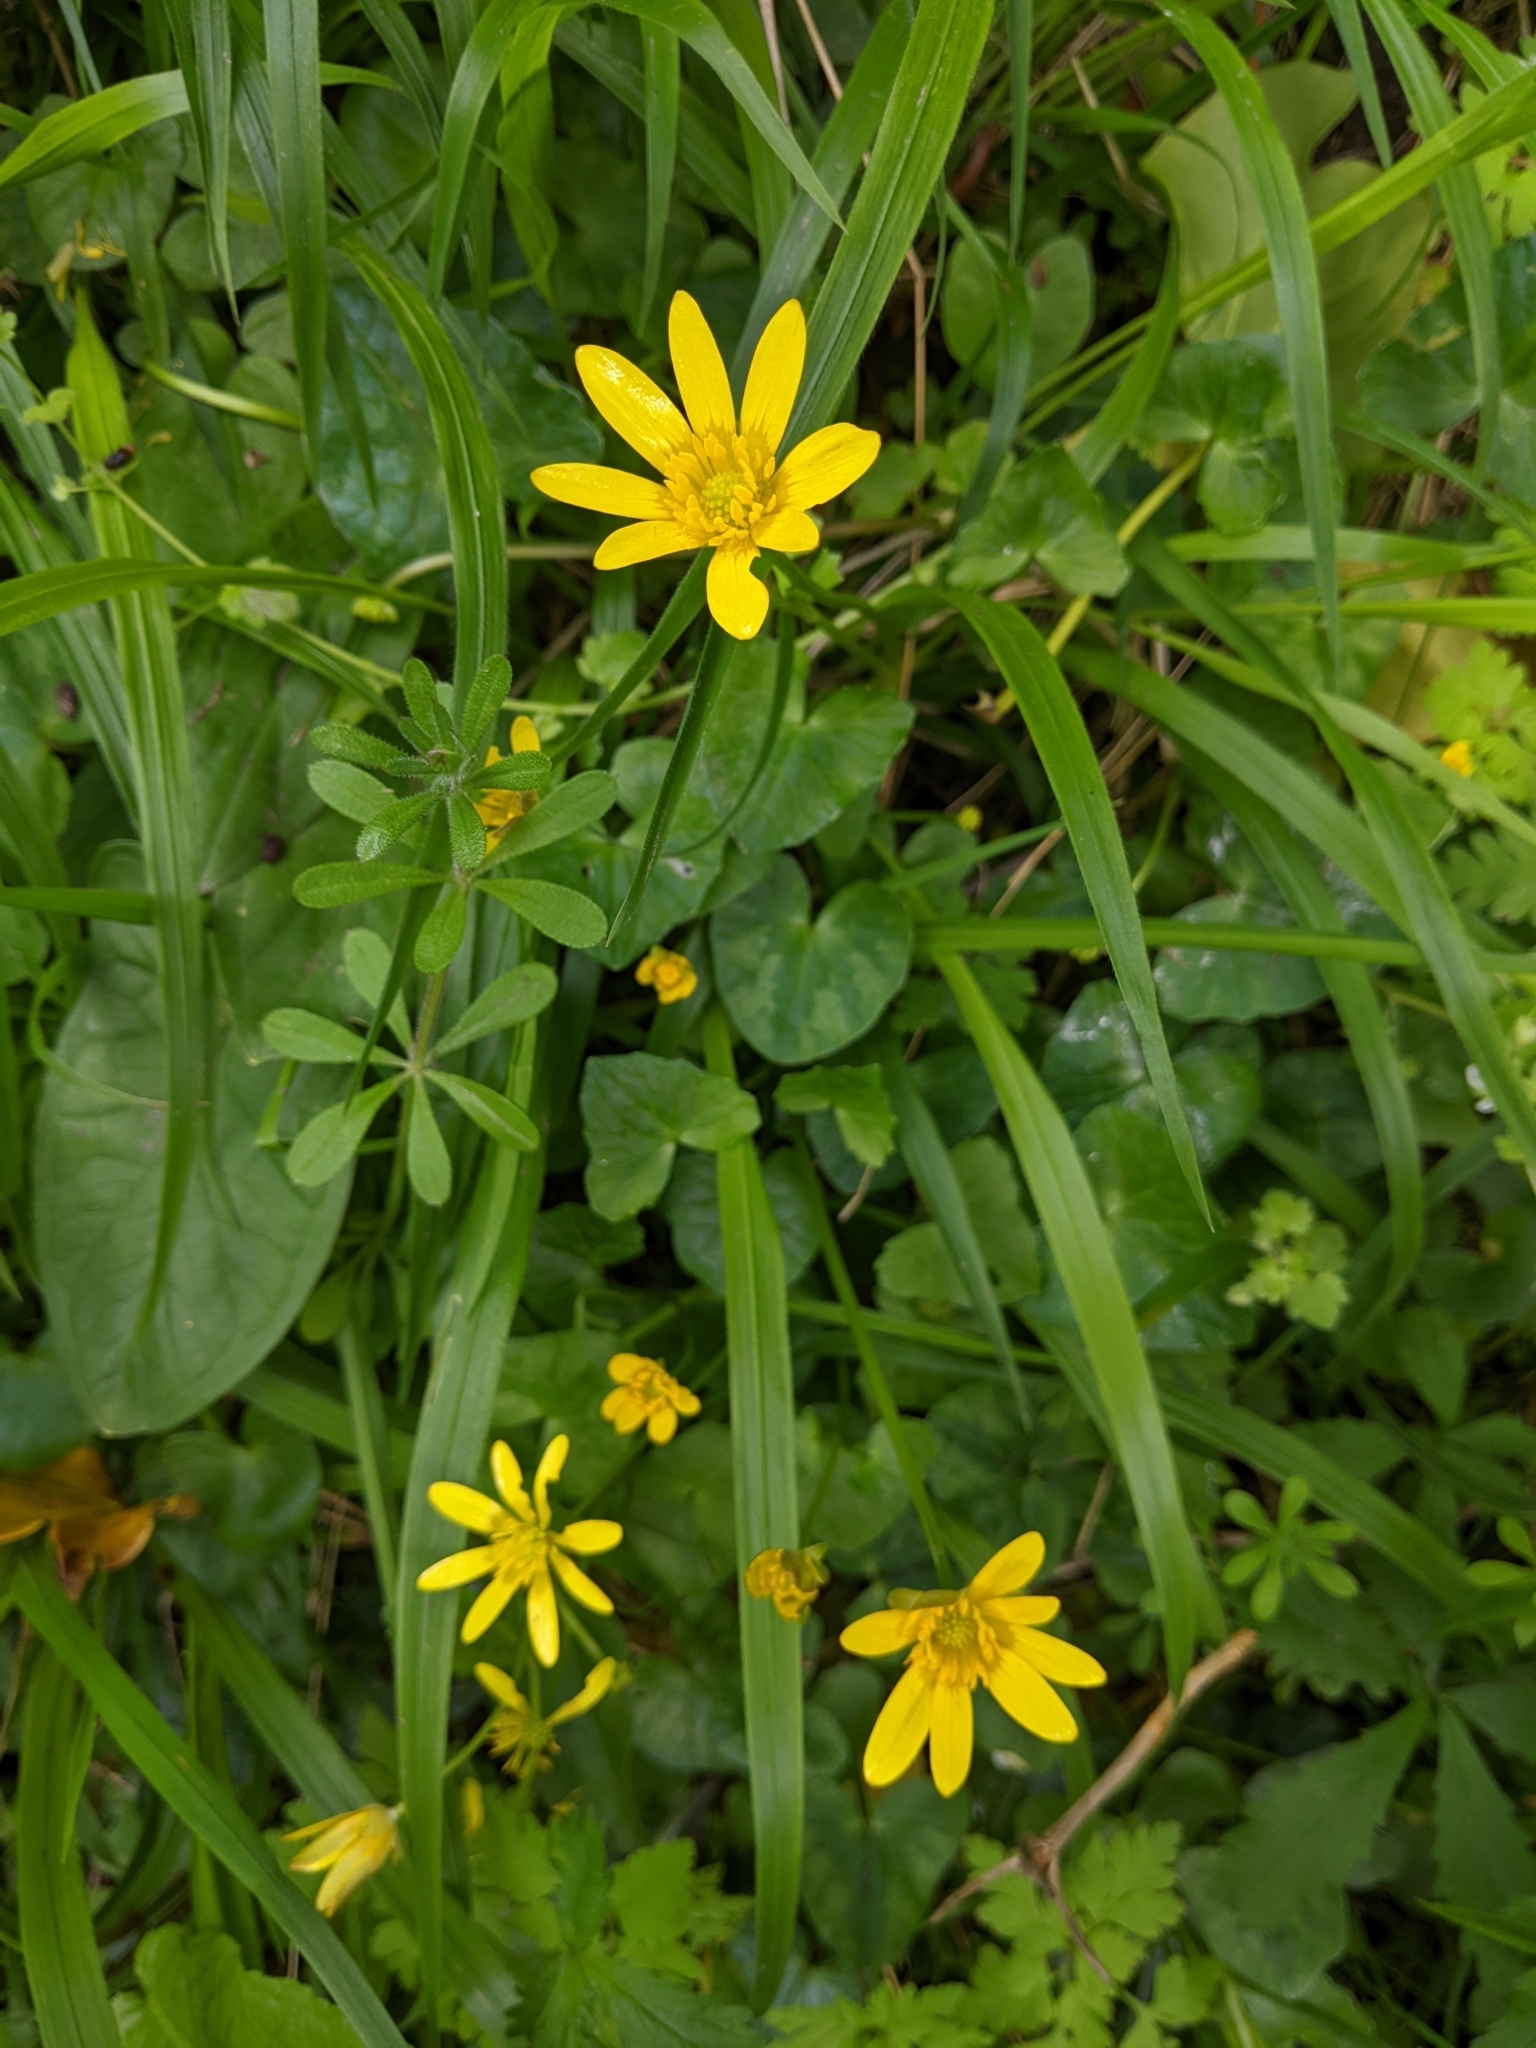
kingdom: Plantae
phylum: Tracheophyta
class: Magnoliopsida
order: Ranunculales
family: Ranunculaceae
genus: Ficaria
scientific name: Ficaria verna
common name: Lesser celandine
